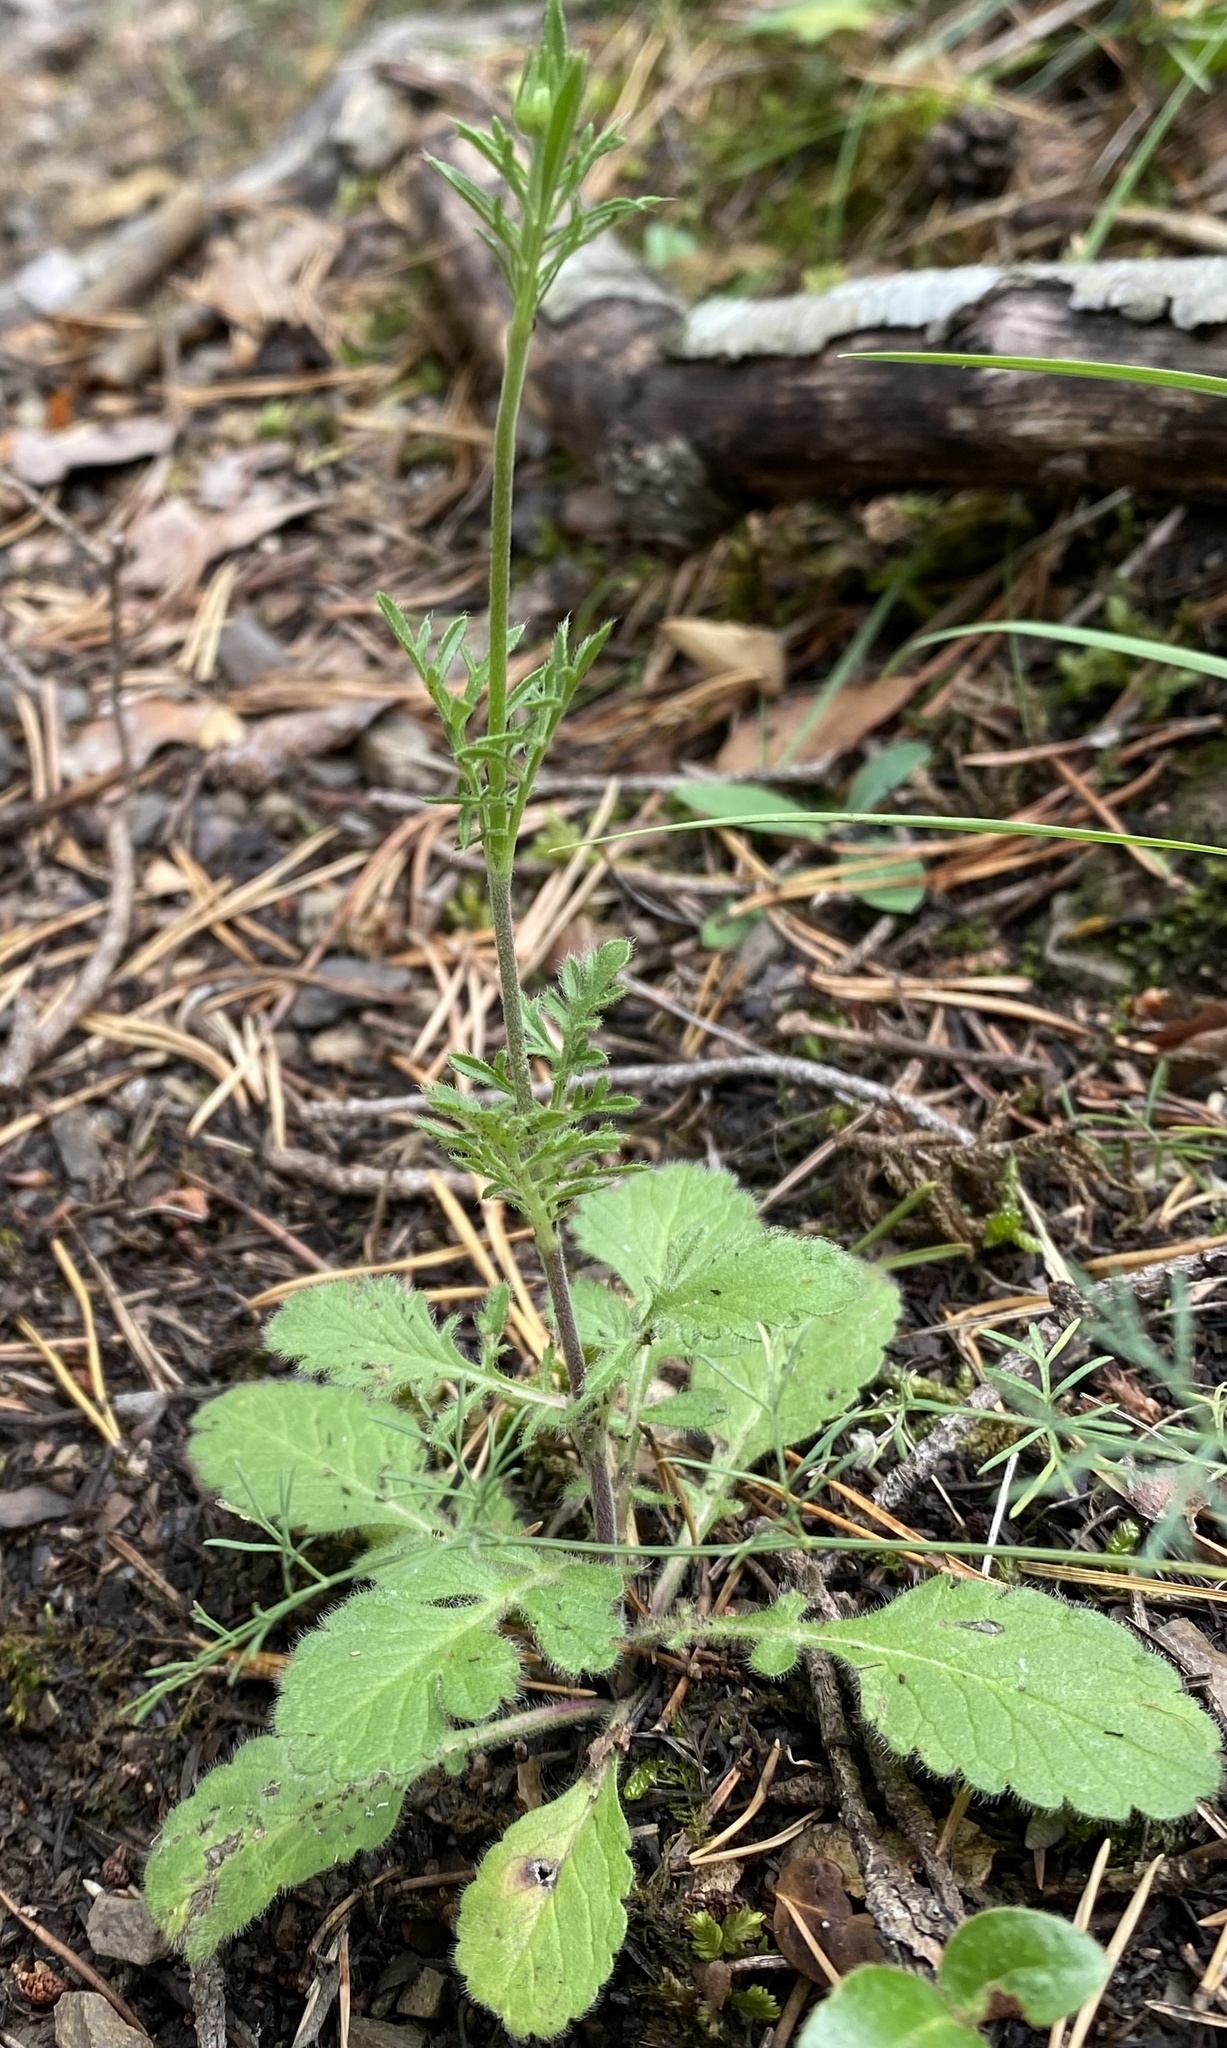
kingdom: Plantae
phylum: Tracheophyta
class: Magnoliopsida
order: Dipsacales
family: Caprifoliaceae
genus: Centranthus
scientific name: Centranthus calcitrapae
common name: Annual valerian
